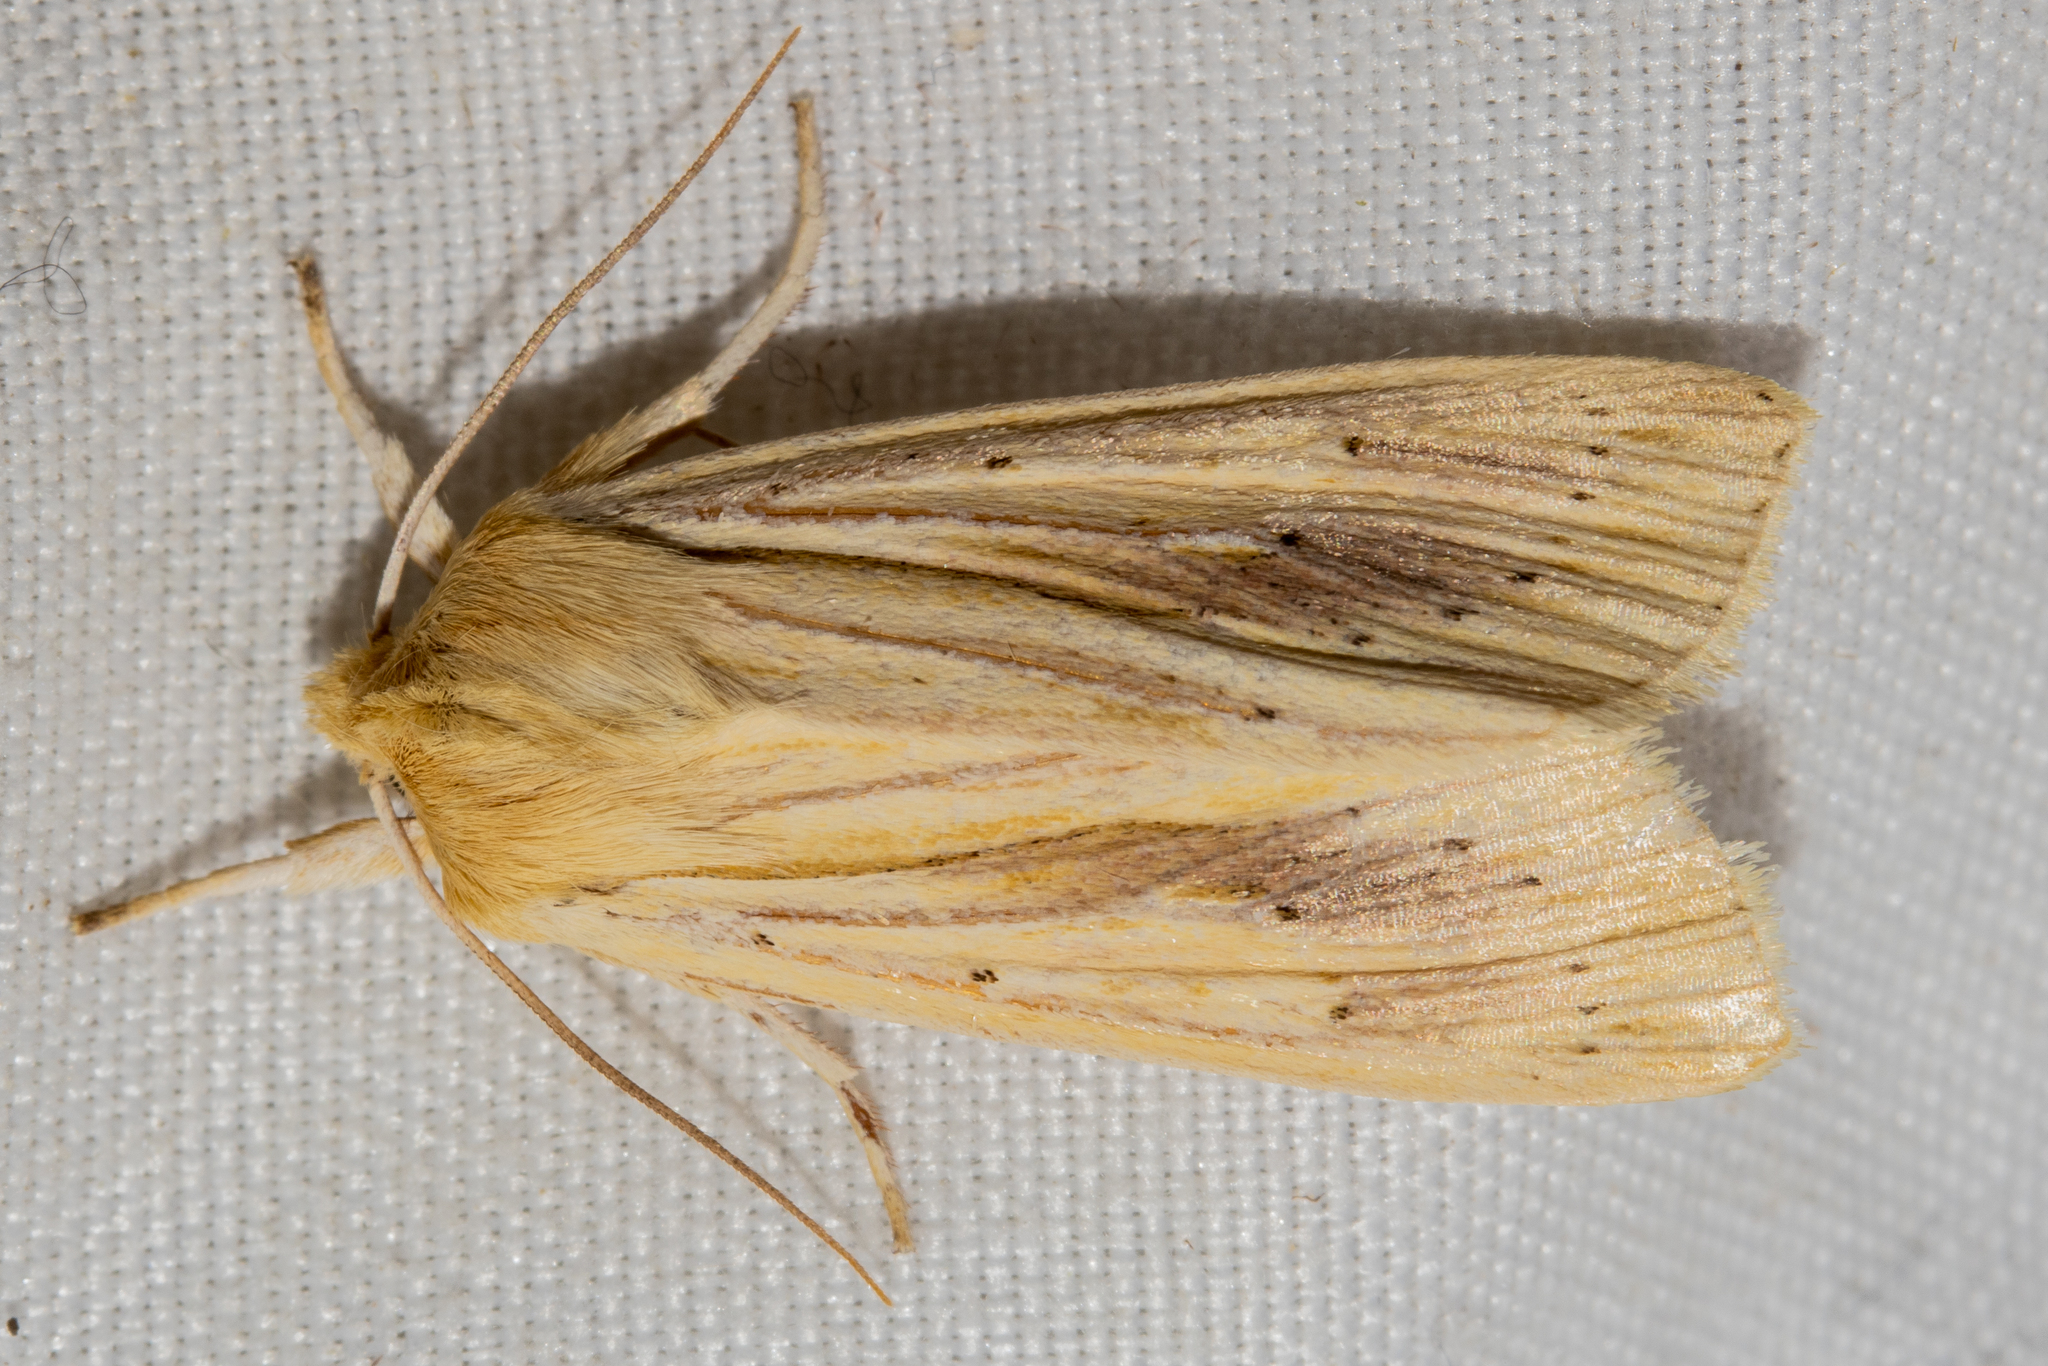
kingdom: Animalia
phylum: Arthropoda
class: Insecta
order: Lepidoptera
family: Noctuidae
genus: Ichneutica
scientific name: Ichneutica semivittata
